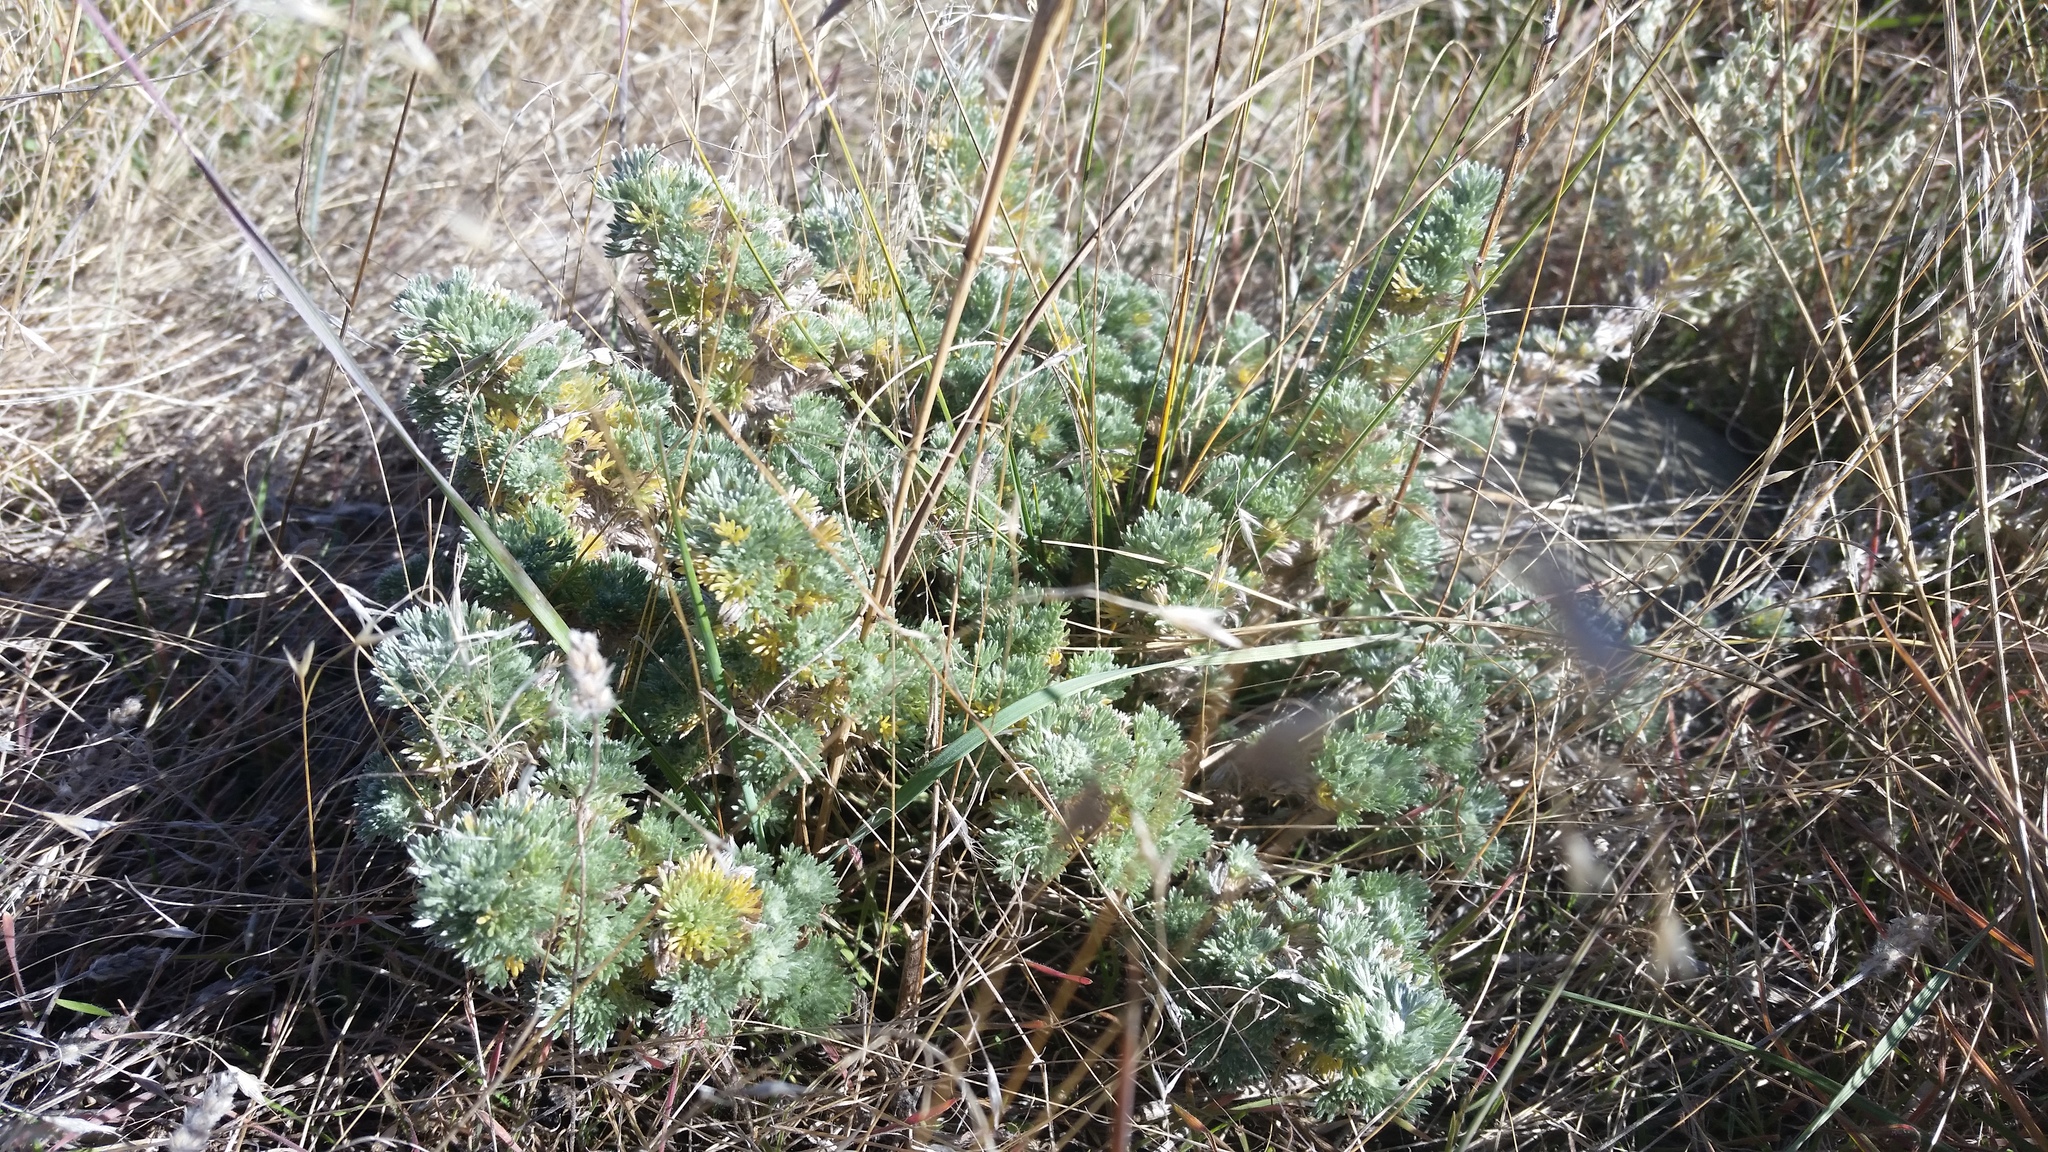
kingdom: Plantae
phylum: Tracheophyta
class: Magnoliopsida
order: Asterales
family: Asteraceae
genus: Artemisia
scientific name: Artemisia frigida
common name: Prairie sagewort
